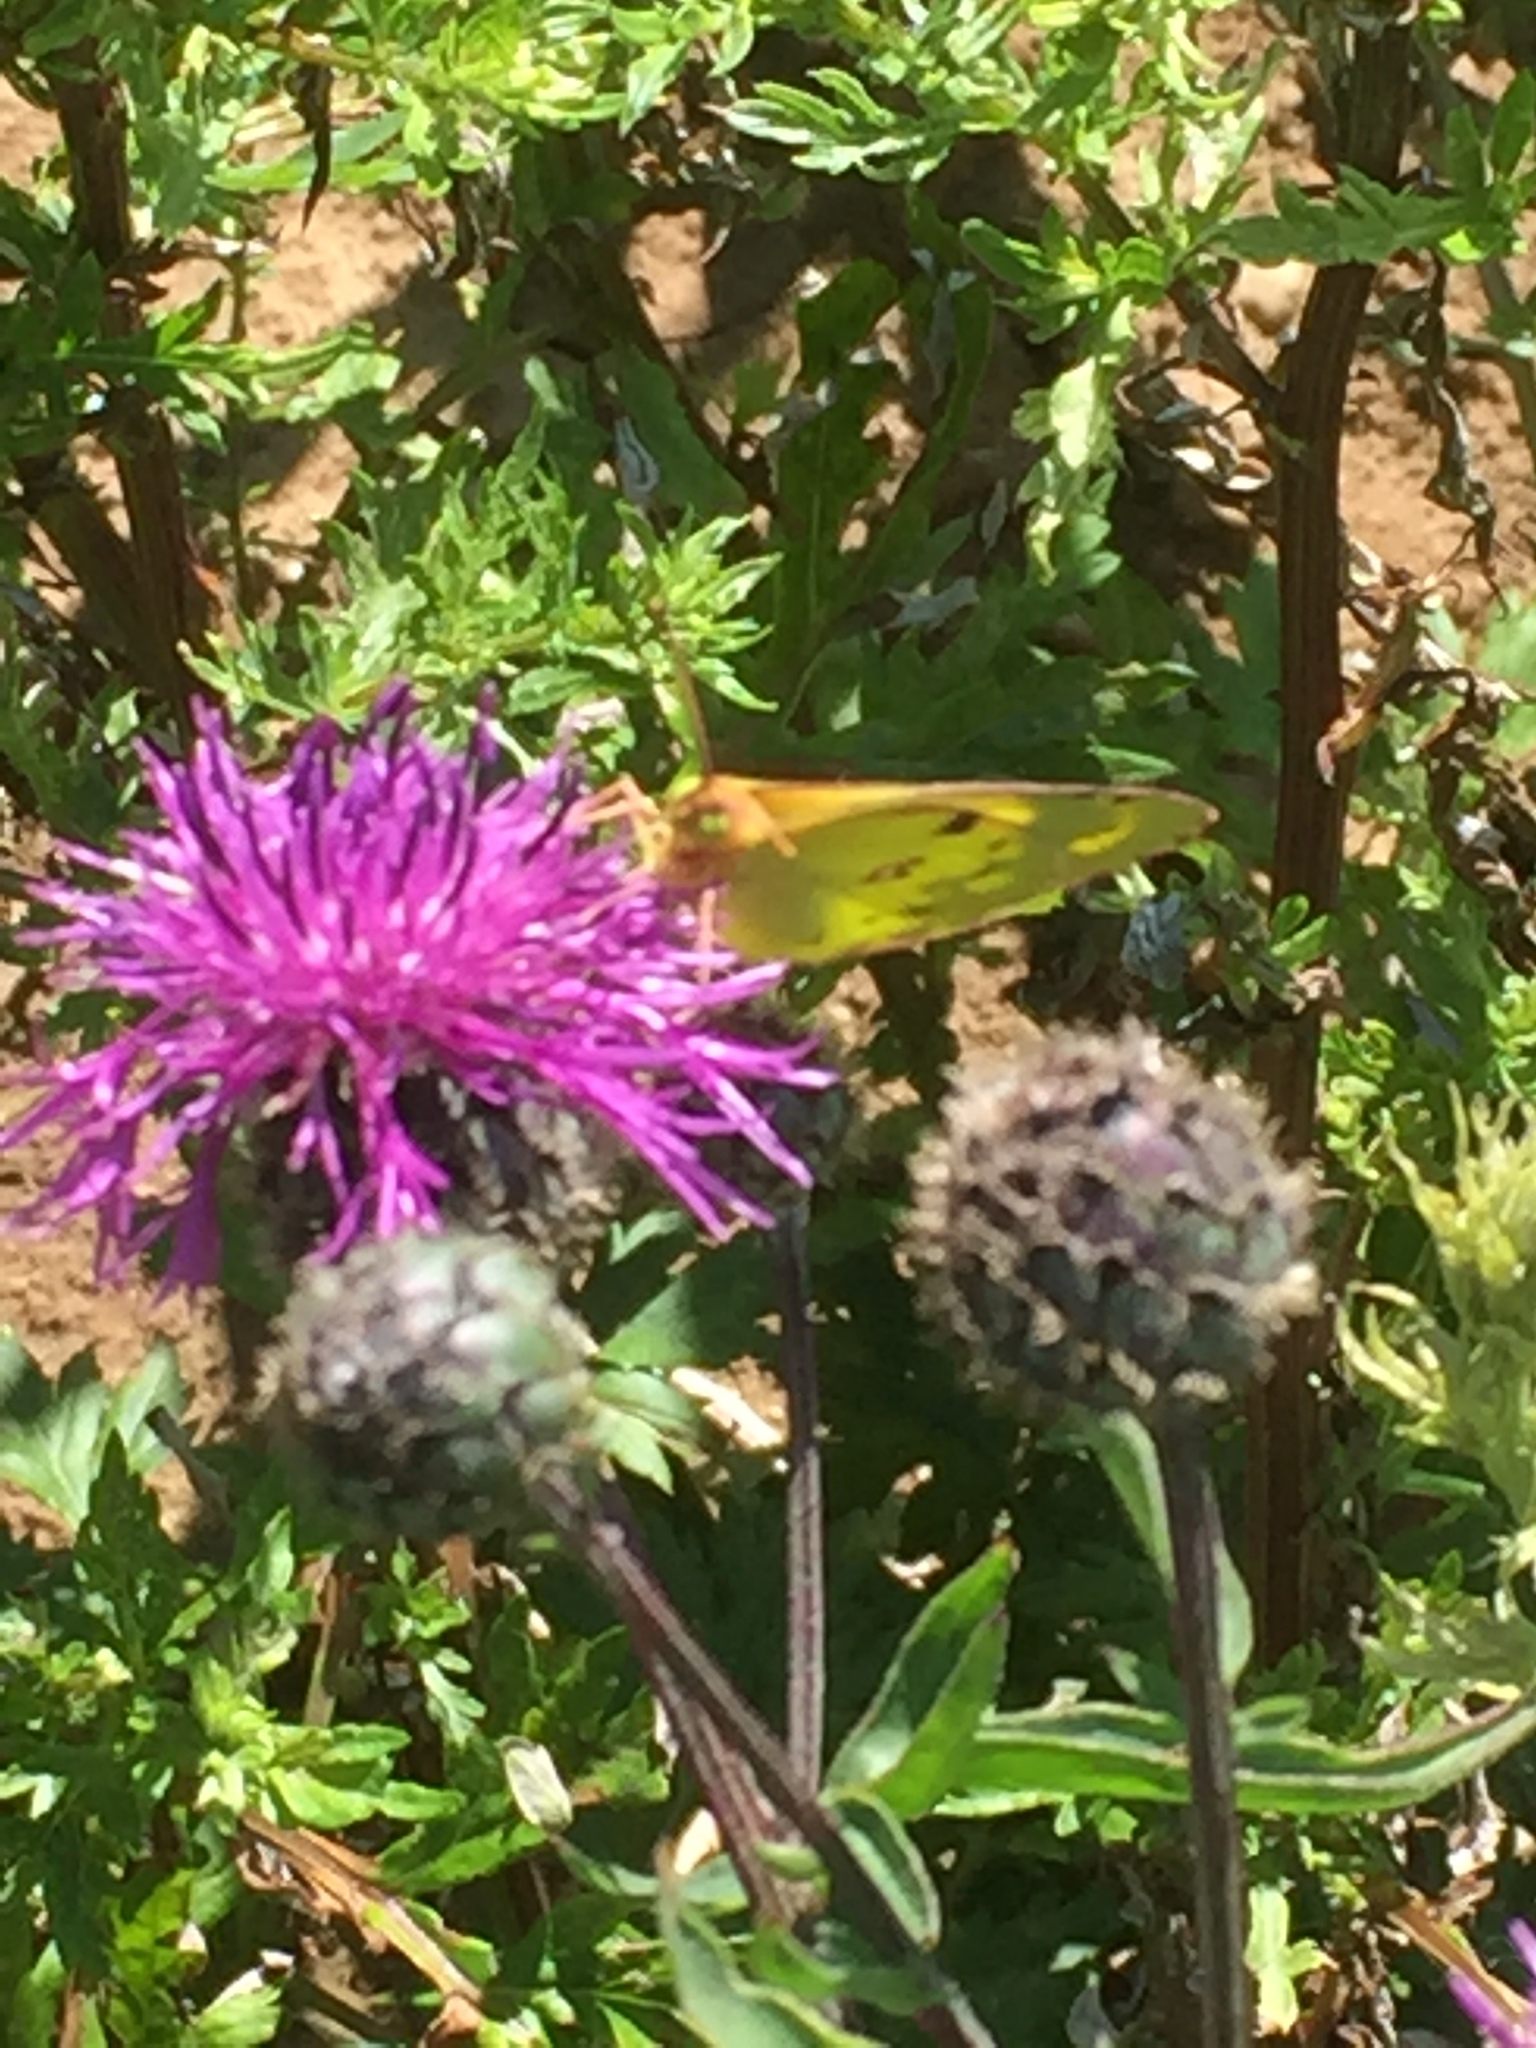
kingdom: Animalia
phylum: Arthropoda
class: Insecta
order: Lepidoptera
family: Pieridae
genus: Colias
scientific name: Colias croceus
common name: Clouded yellow
